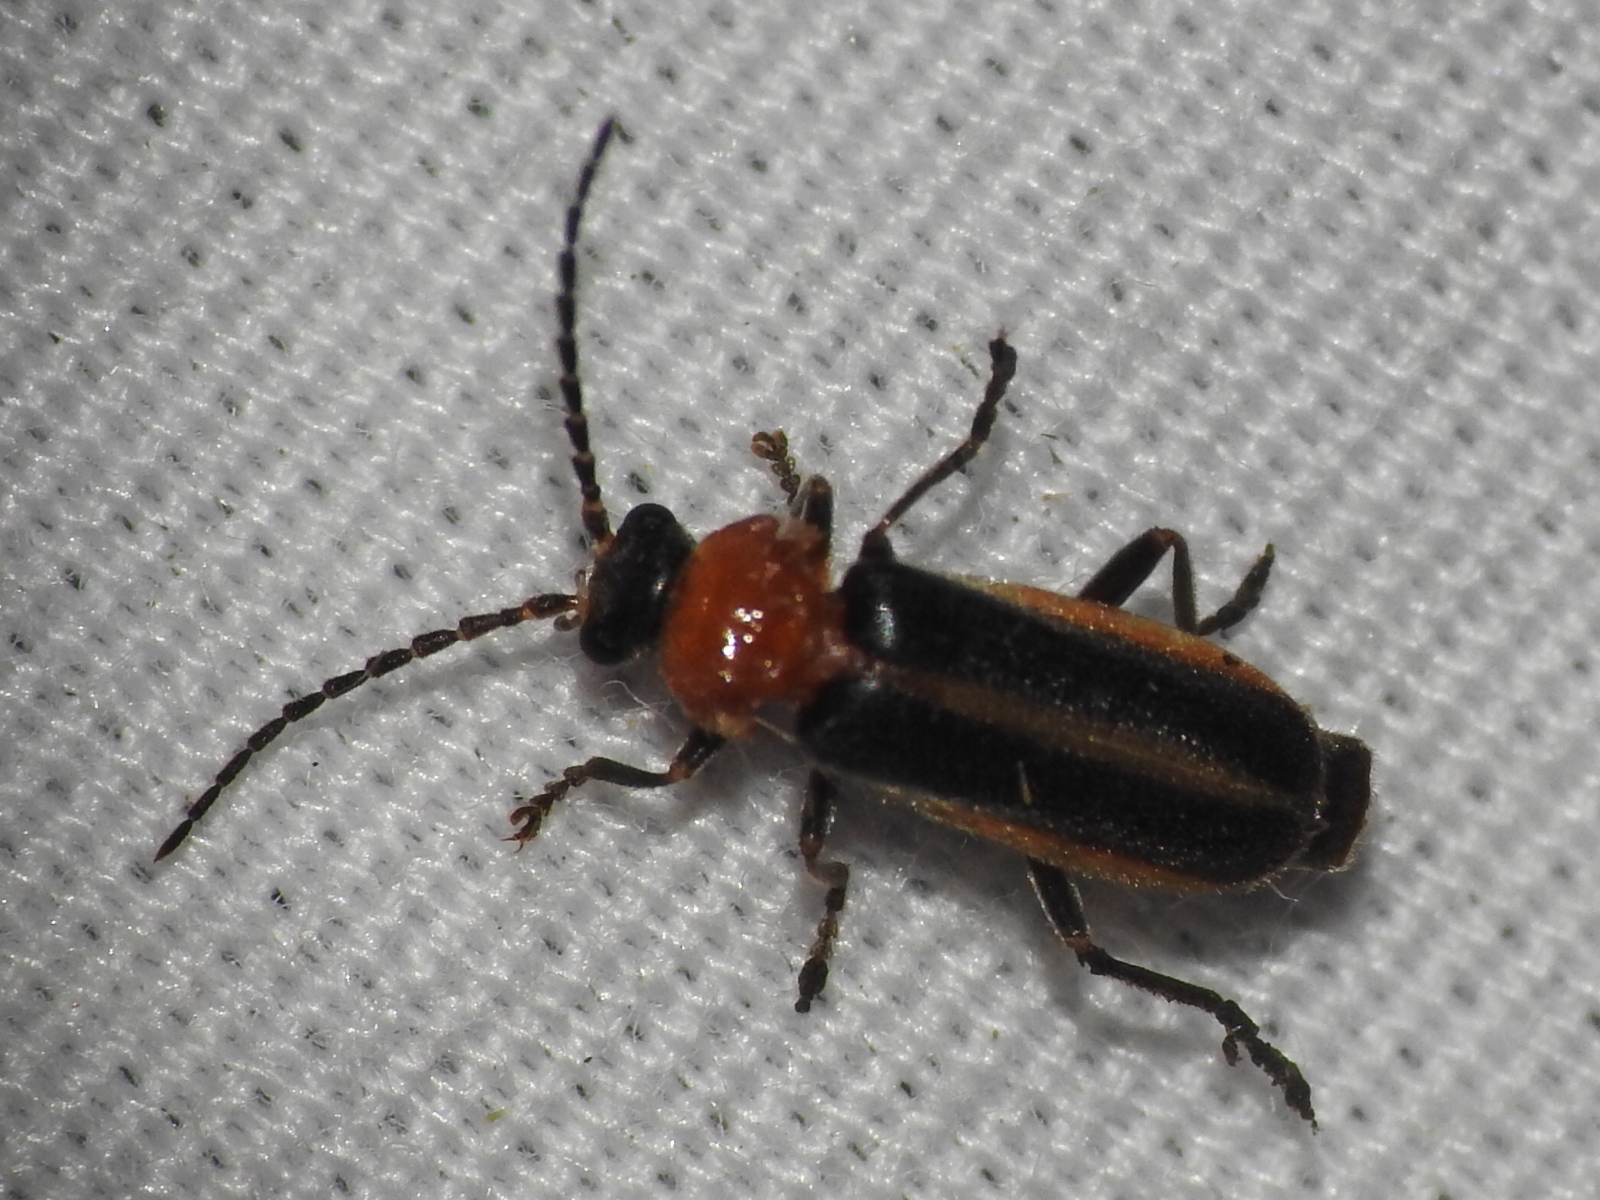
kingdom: Animalia
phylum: Arthropoda
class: Insecta
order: Coleoptera
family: Cantharidae
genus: Ditemnus
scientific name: Ditemnus
